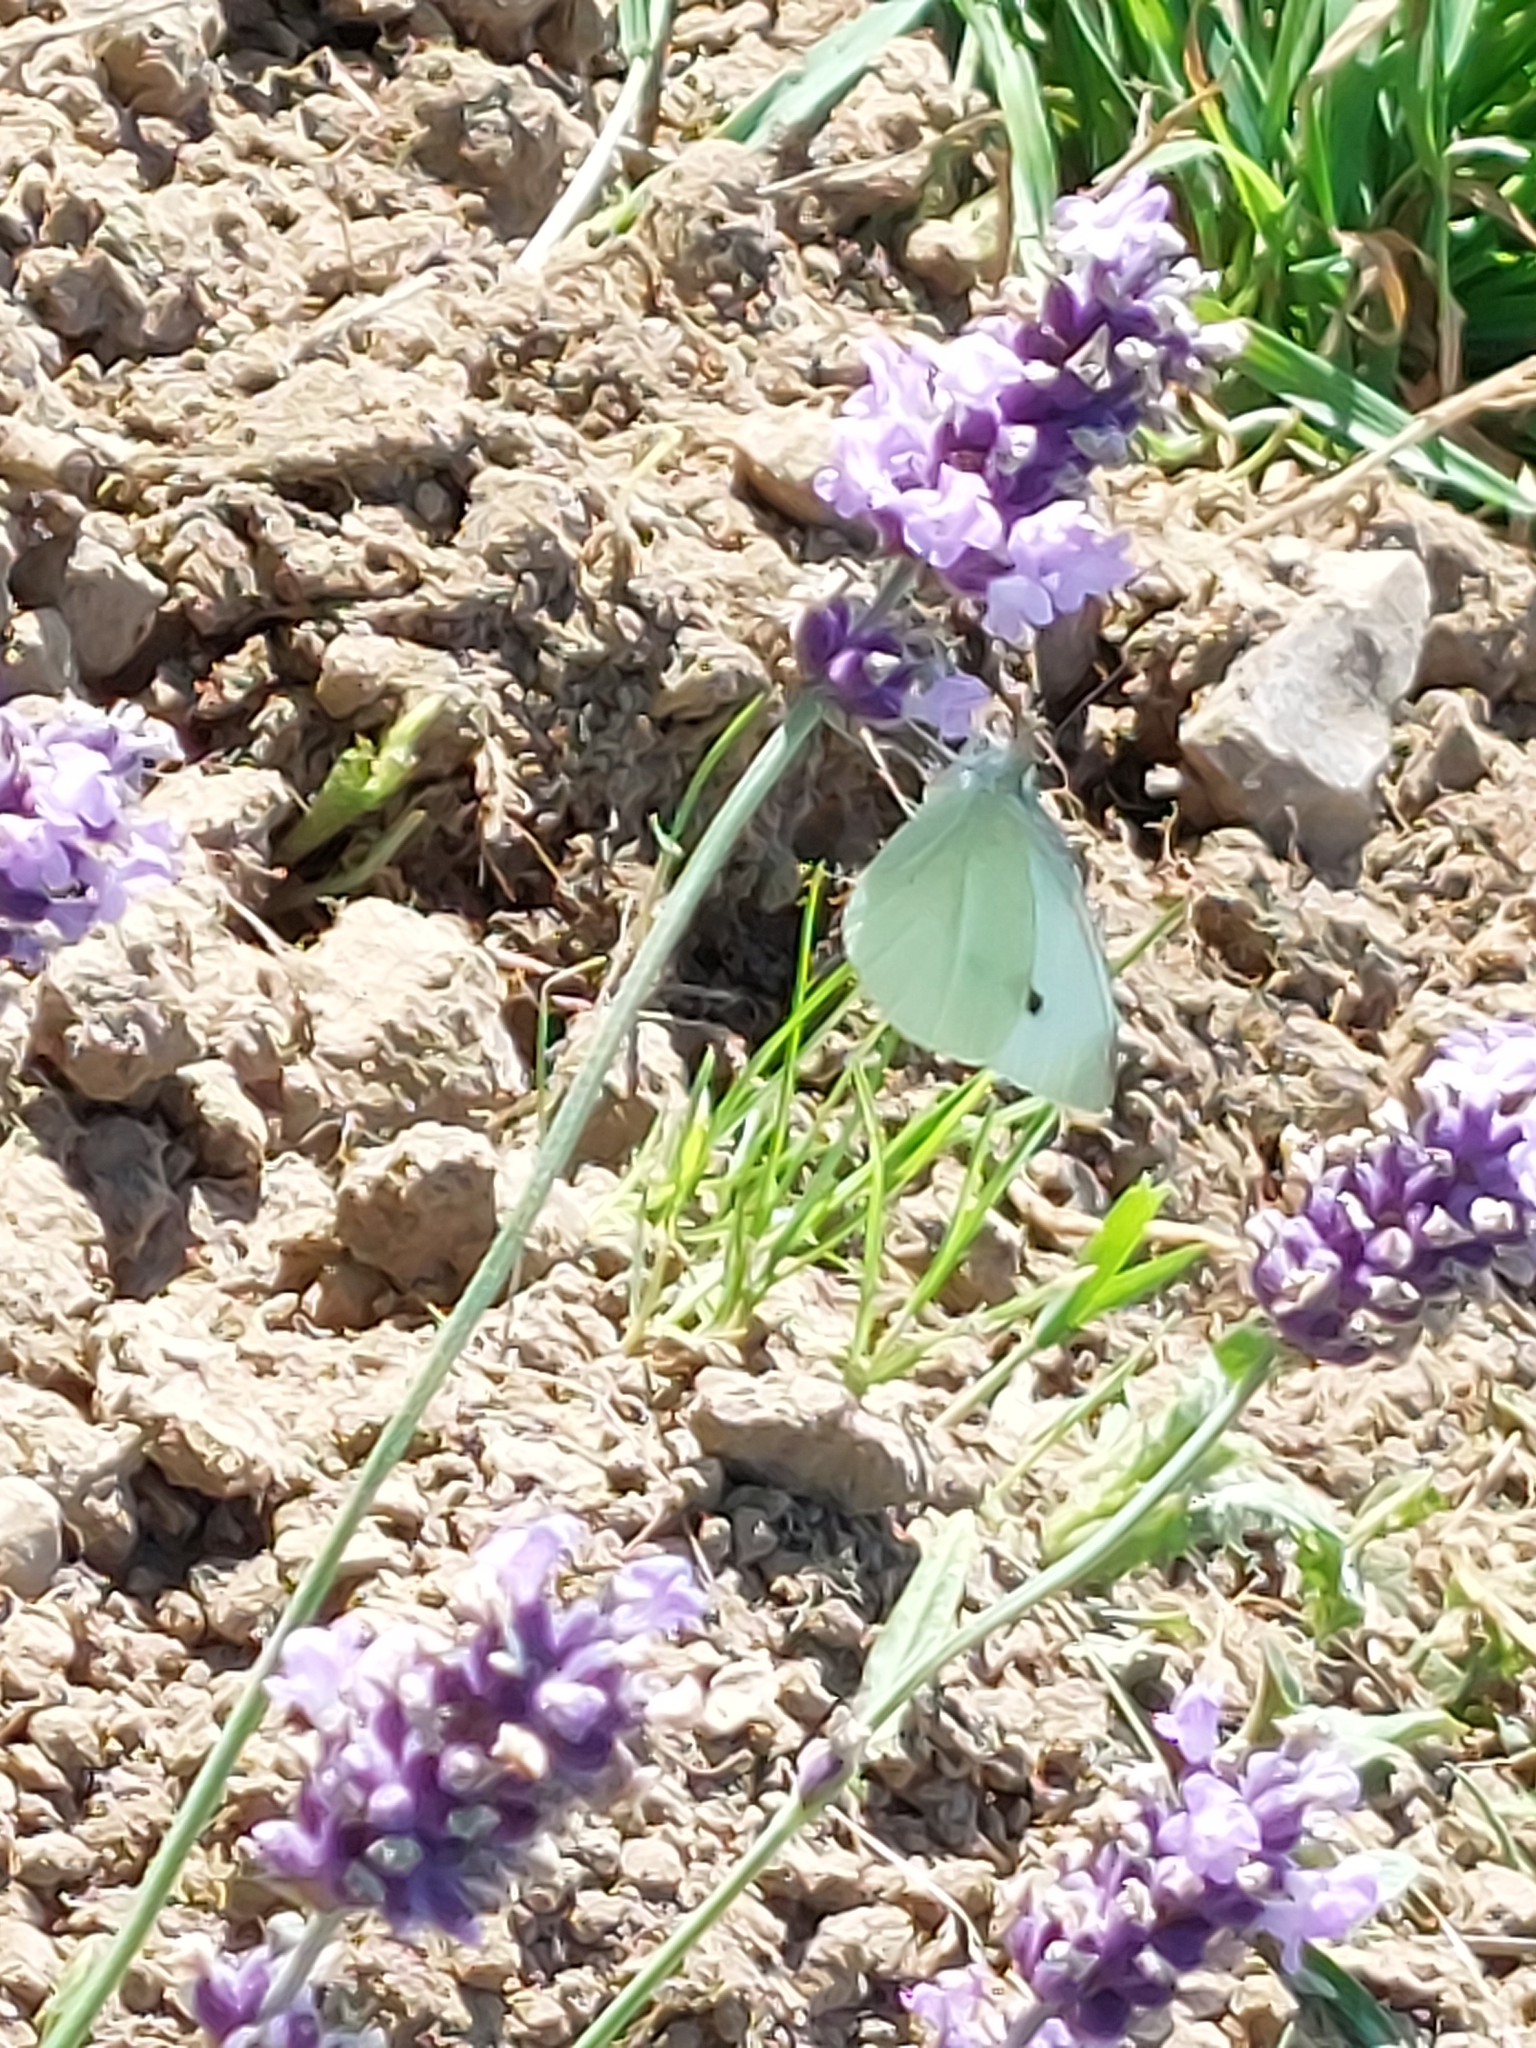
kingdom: Animalia
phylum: Arthropoda
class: Insecta
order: Lepidoptera
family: Pieridae
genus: Pieris
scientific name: Pieris rapae
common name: Small white
